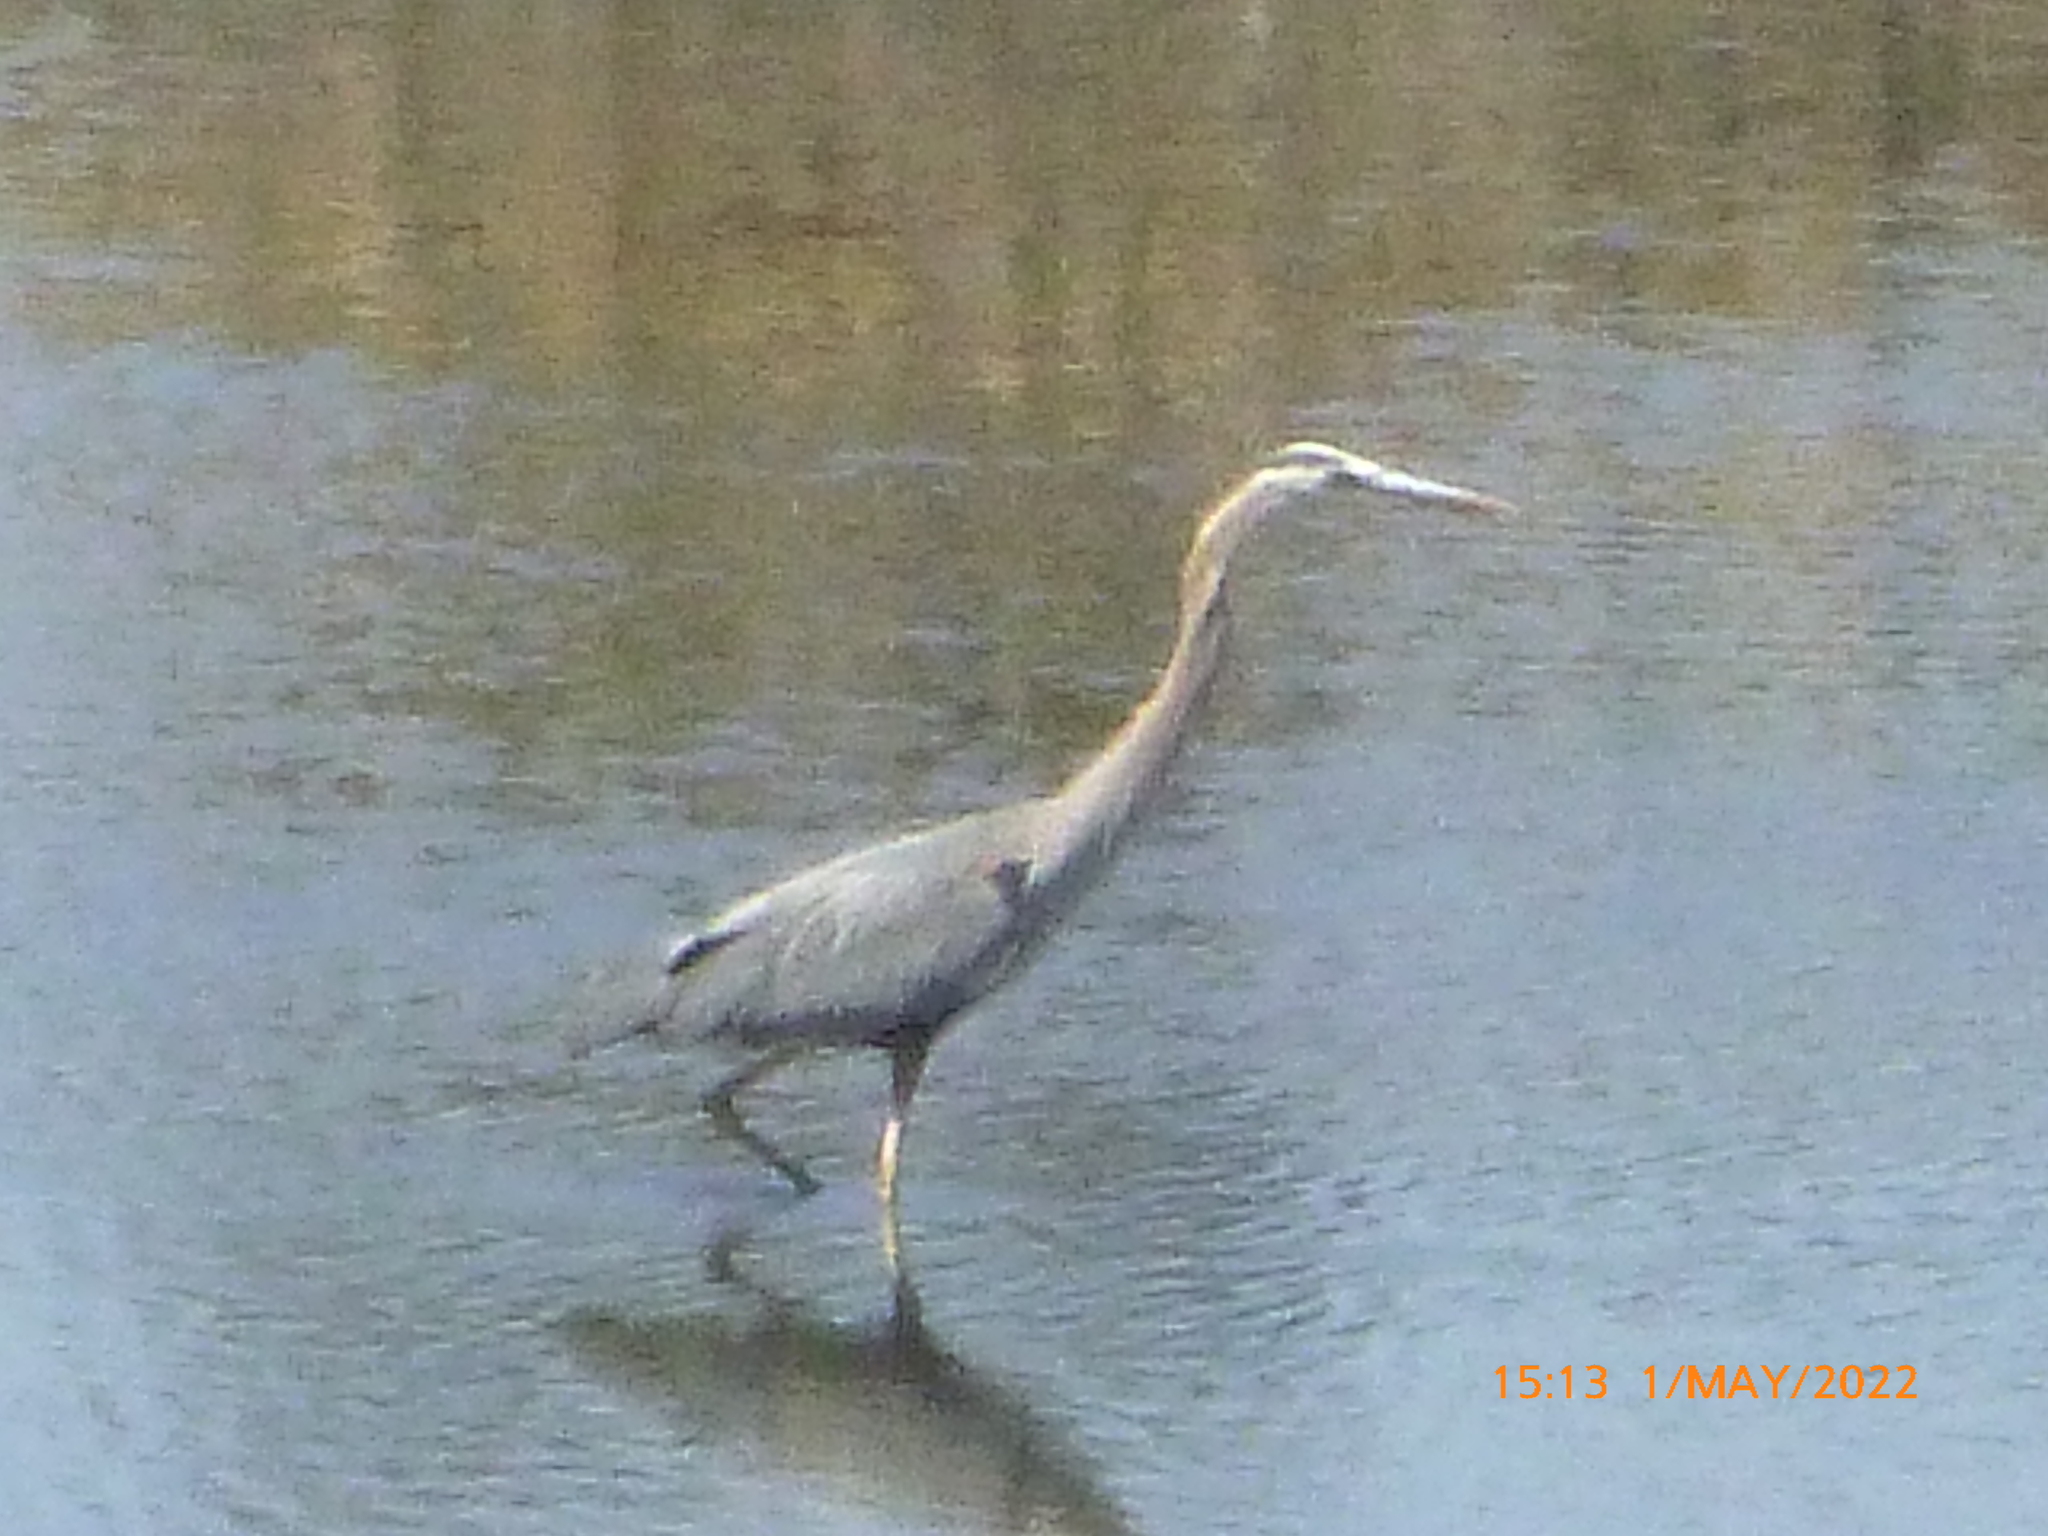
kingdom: Animalia
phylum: Chordata
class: Aves
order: Pelecaniformes
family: Ardeidae
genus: Ardea
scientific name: Ardea herodias
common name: Great blue heron
